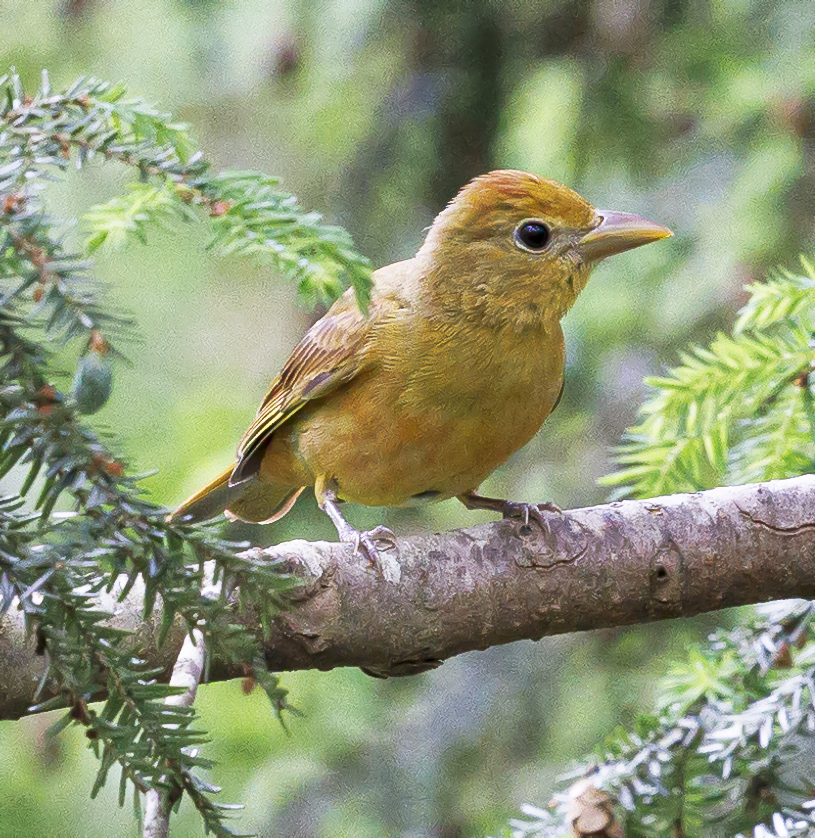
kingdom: Animalia
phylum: Chordata
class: Aves
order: Passeriformes
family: Cardinalidae
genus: Piranga
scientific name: Piranga rubra
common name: Summer tanager
